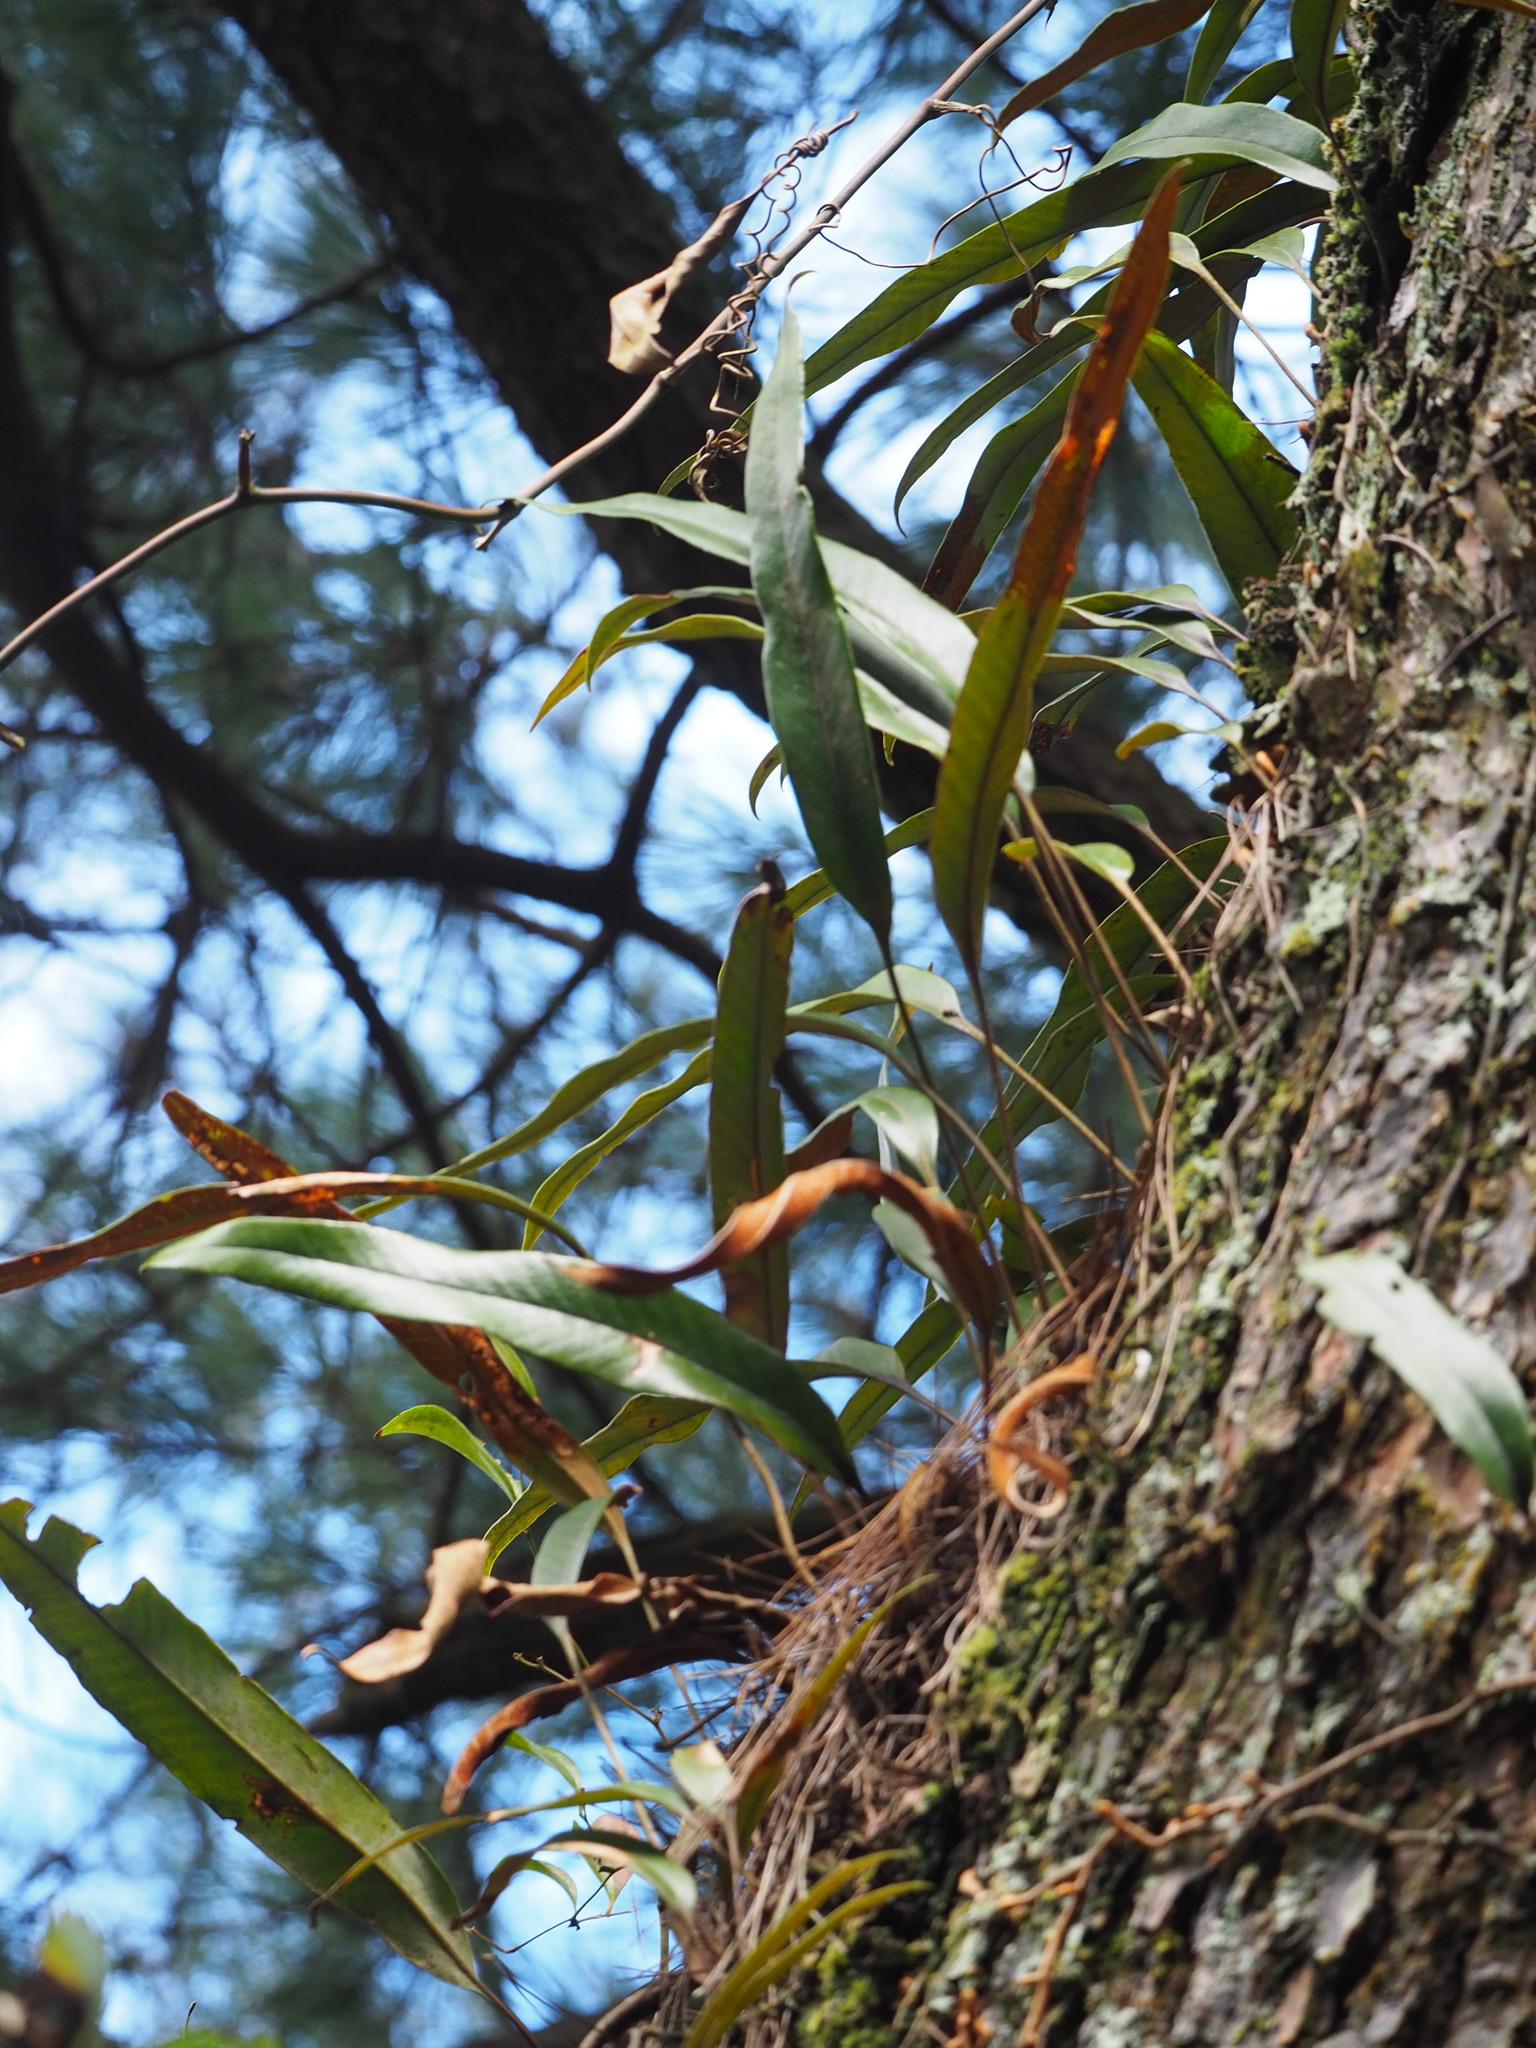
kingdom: Plantae
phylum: Tracheophyta
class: Polypodiopsida
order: Polypodiales
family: Polypodiaceae
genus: Pyrrosia
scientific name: Pyrrosia lingua
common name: Felt fern
